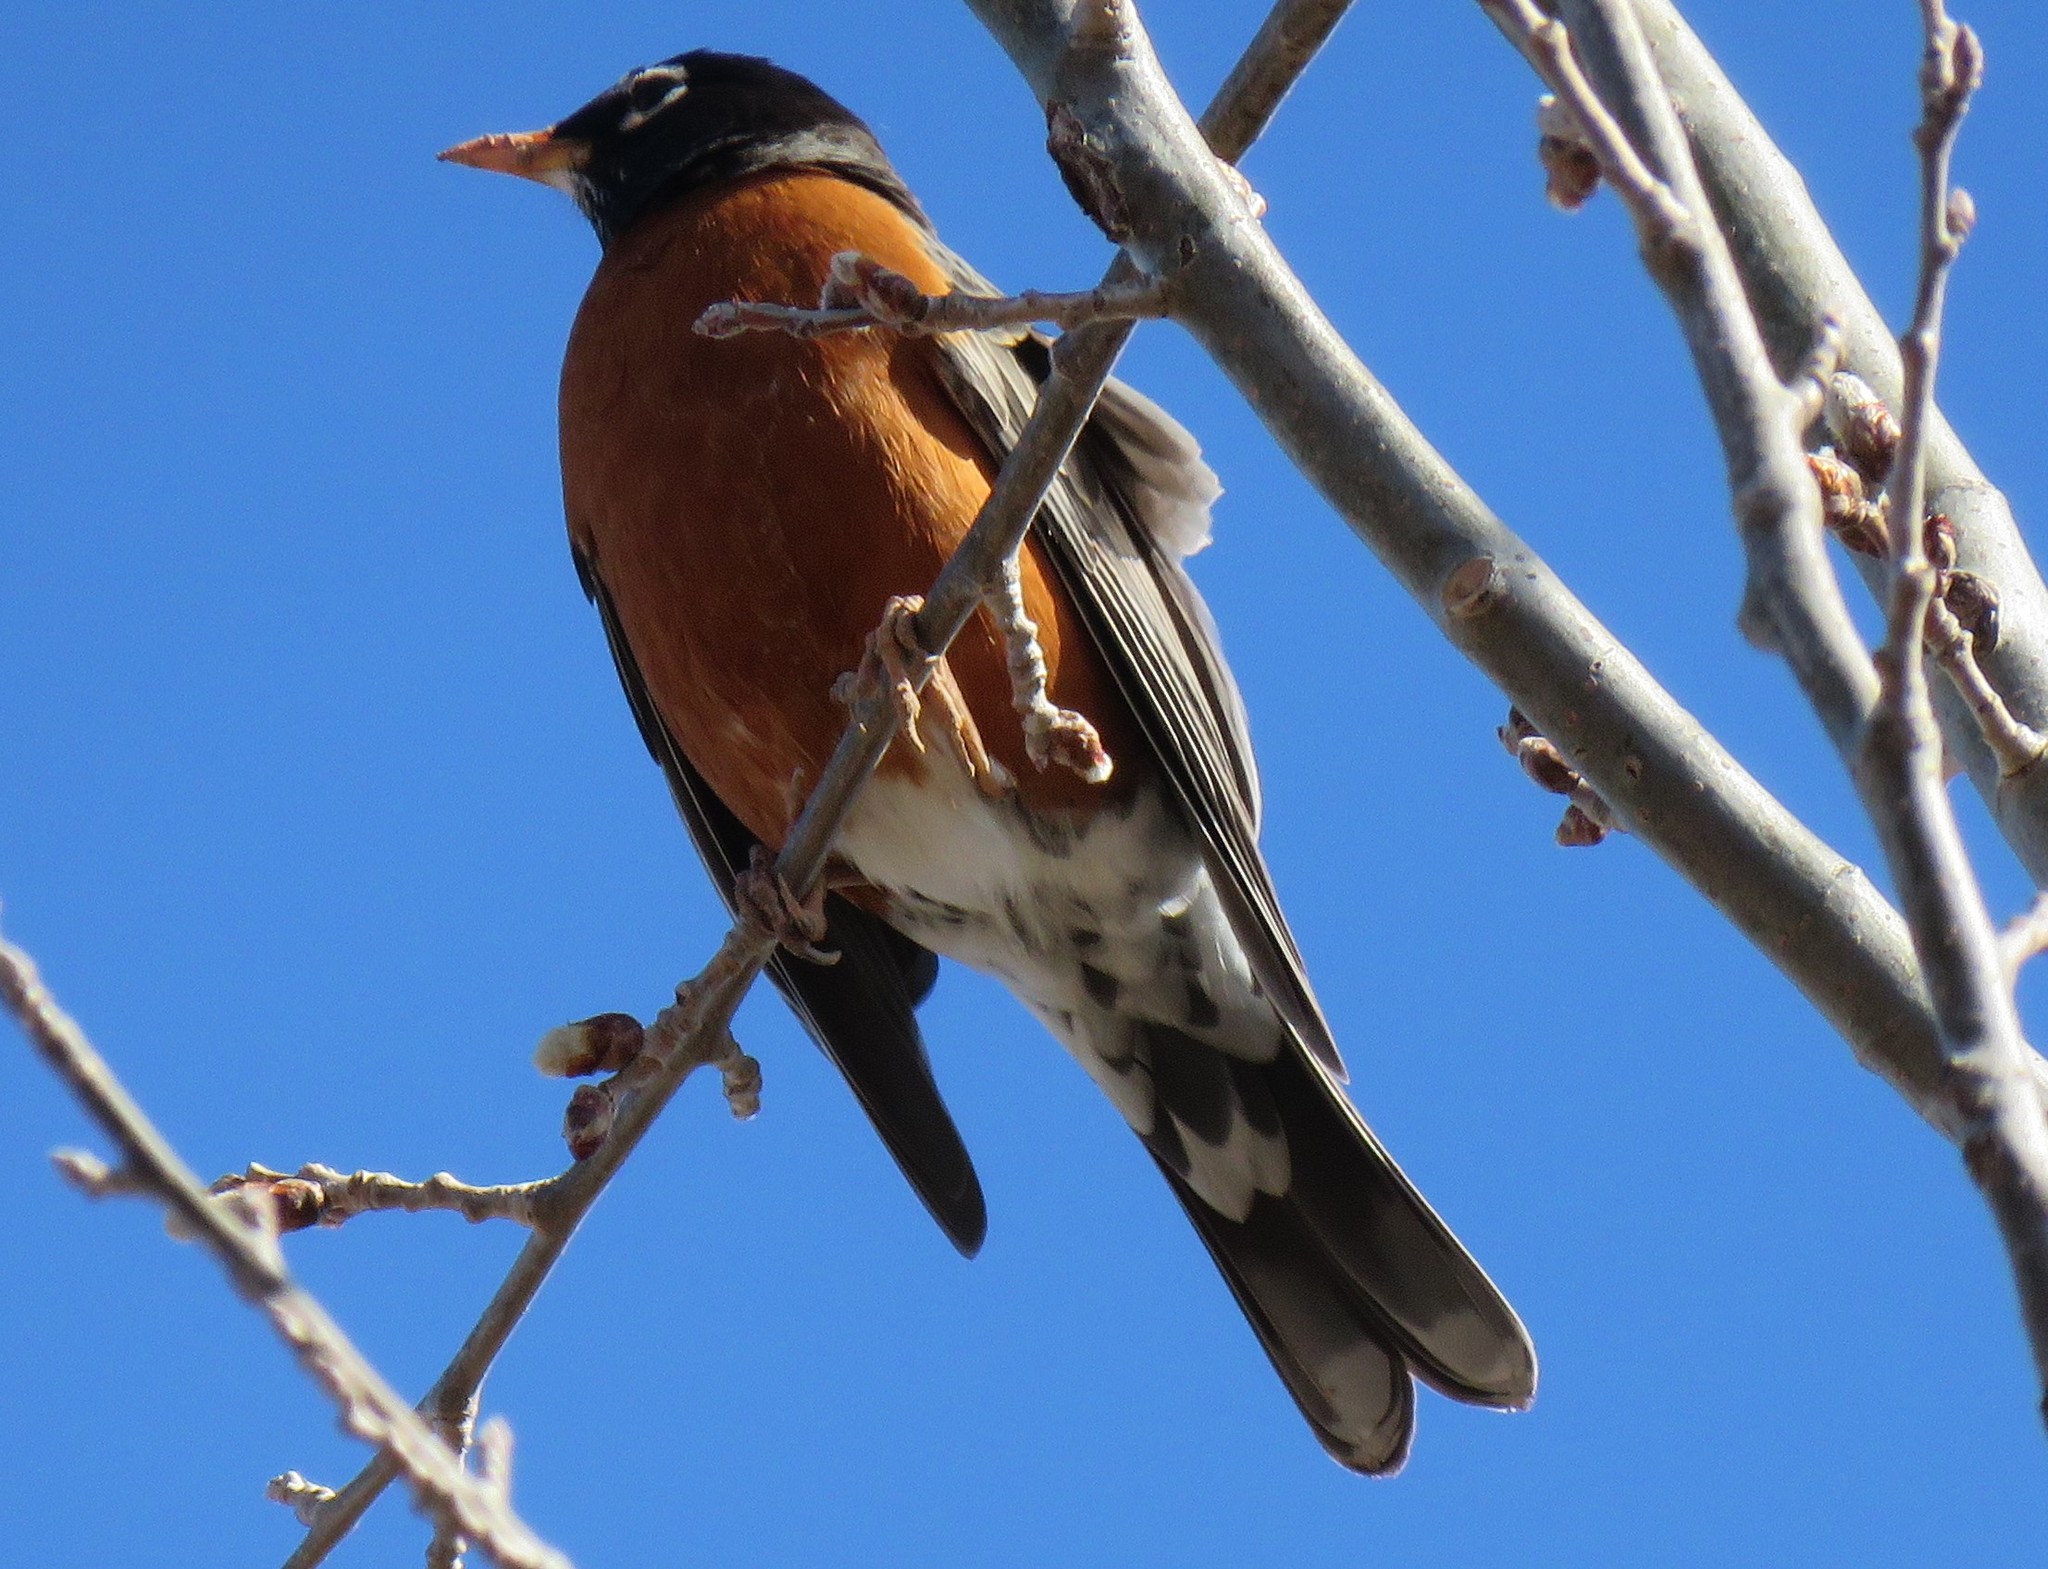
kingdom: Animalia
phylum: Chordata
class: Aves
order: Passeriformes
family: Turdidae
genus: Turdus
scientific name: Turdus migratorius
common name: American robin
